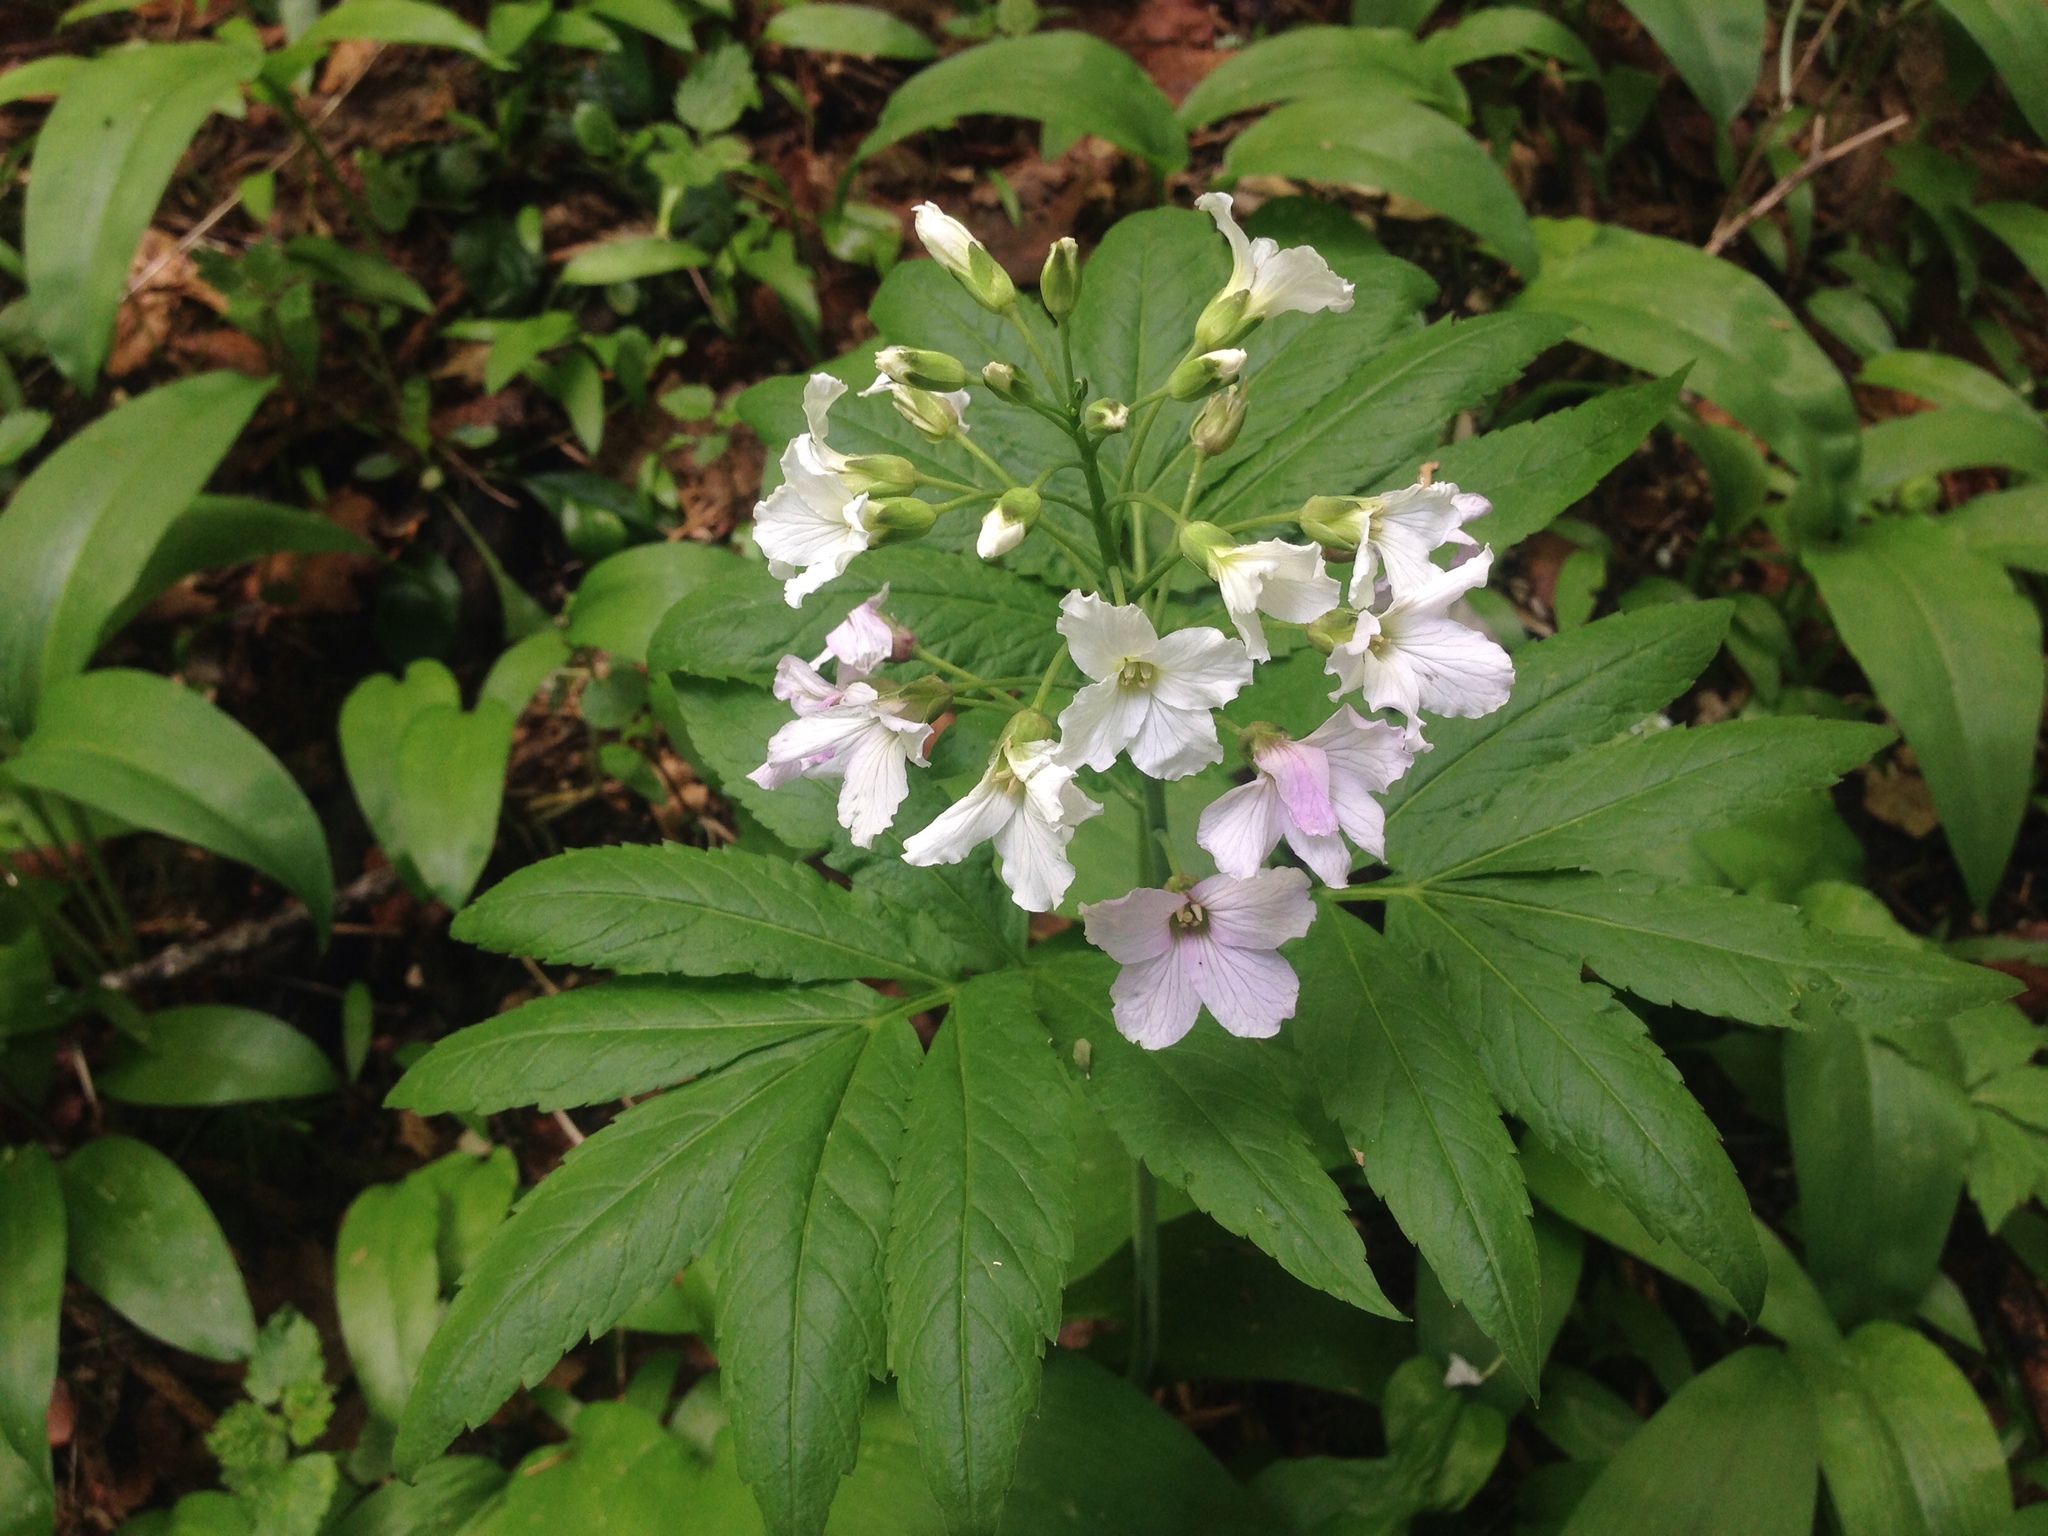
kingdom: Plantae
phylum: Tracheophyta
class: Magnoliopsida
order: Brassicales
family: Brassicaceae
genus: Cardamine
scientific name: Cardamine heptaphylla
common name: Pinnate coralroot
